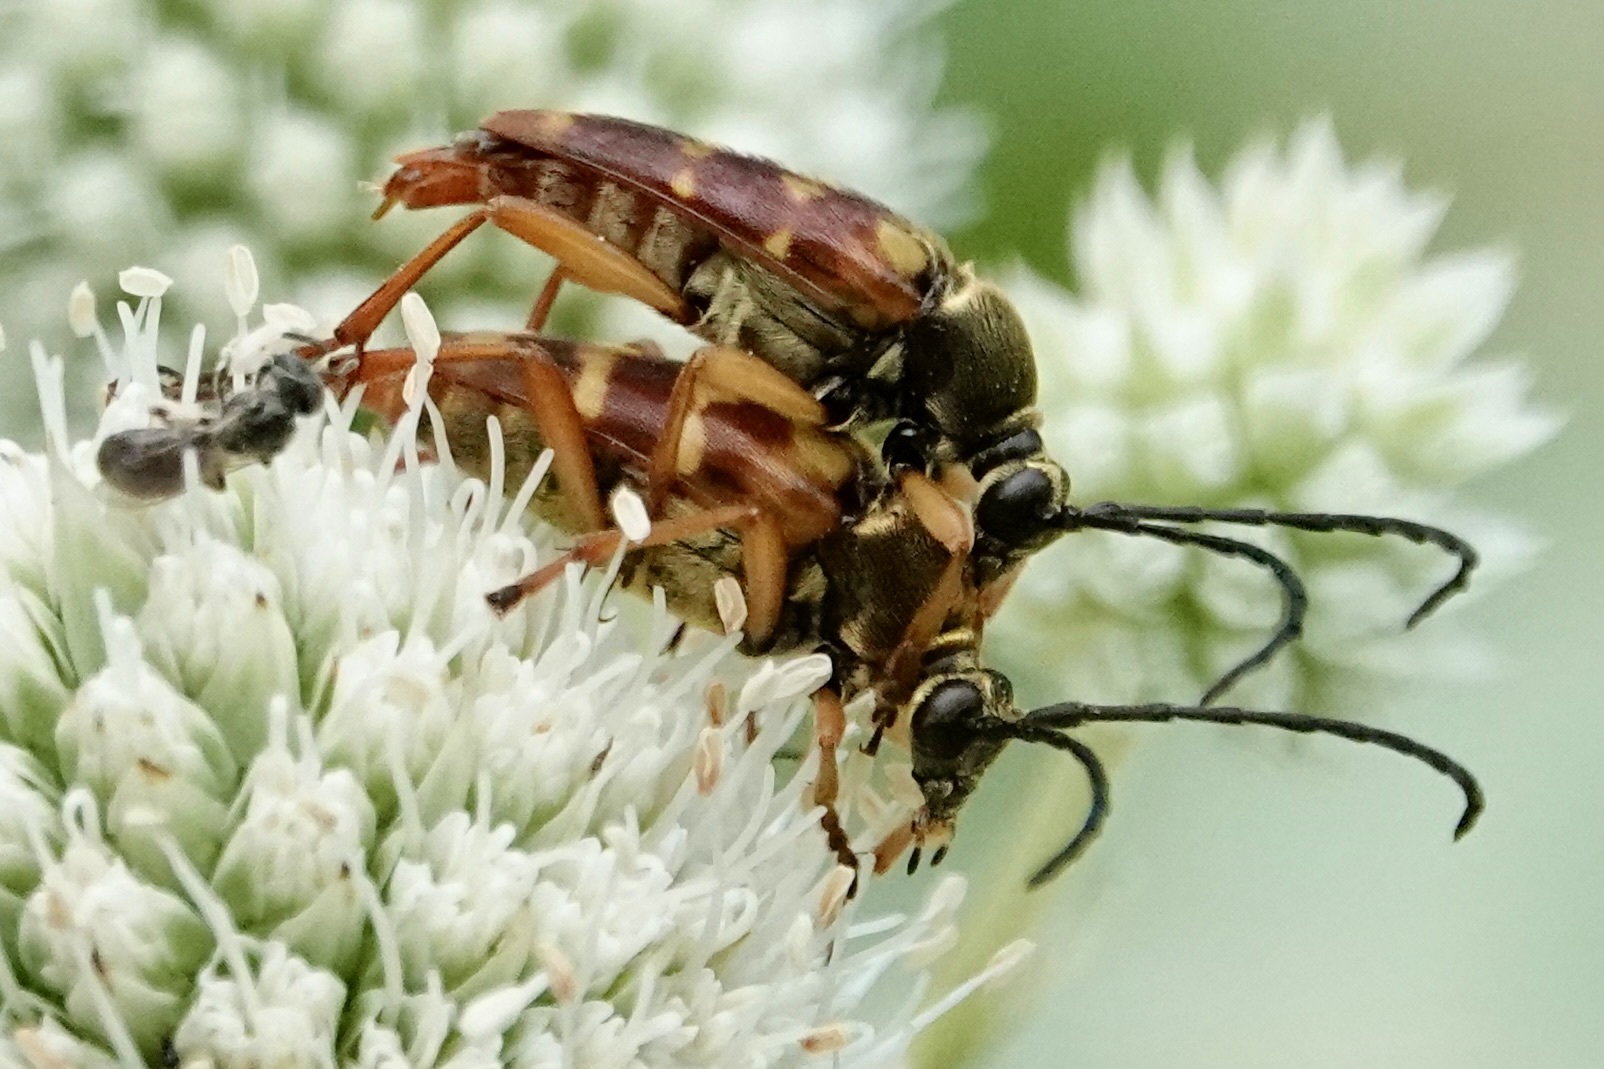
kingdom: Animalia
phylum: Arthropoda
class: Insecta
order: Coleoptera
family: Cerambycidae
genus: Typocerus
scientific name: Typocerus velutinus
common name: Banded longhorn beetle
